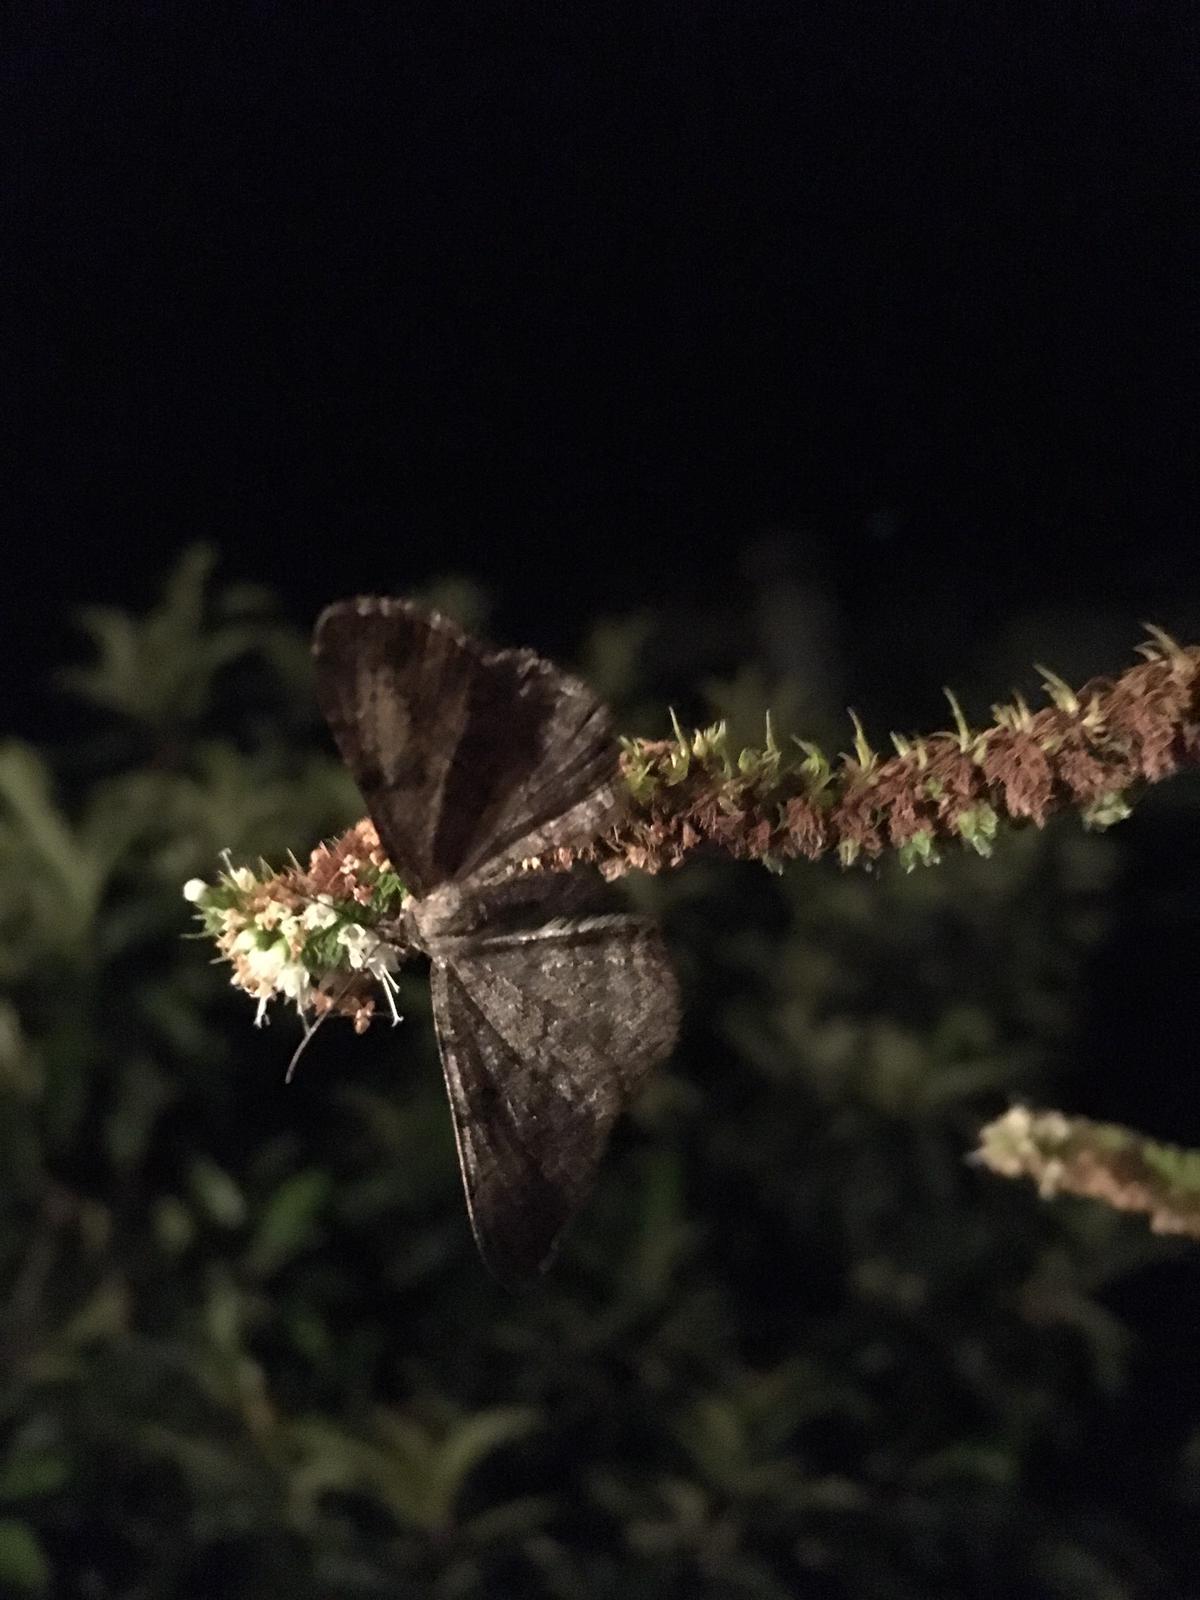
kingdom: Animalia
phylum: Arthropoda
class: Insecta
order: Lepidoptera
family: Geometridae
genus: Peribatodes
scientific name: Peribatodes rhomboidaria
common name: Willow beauty
